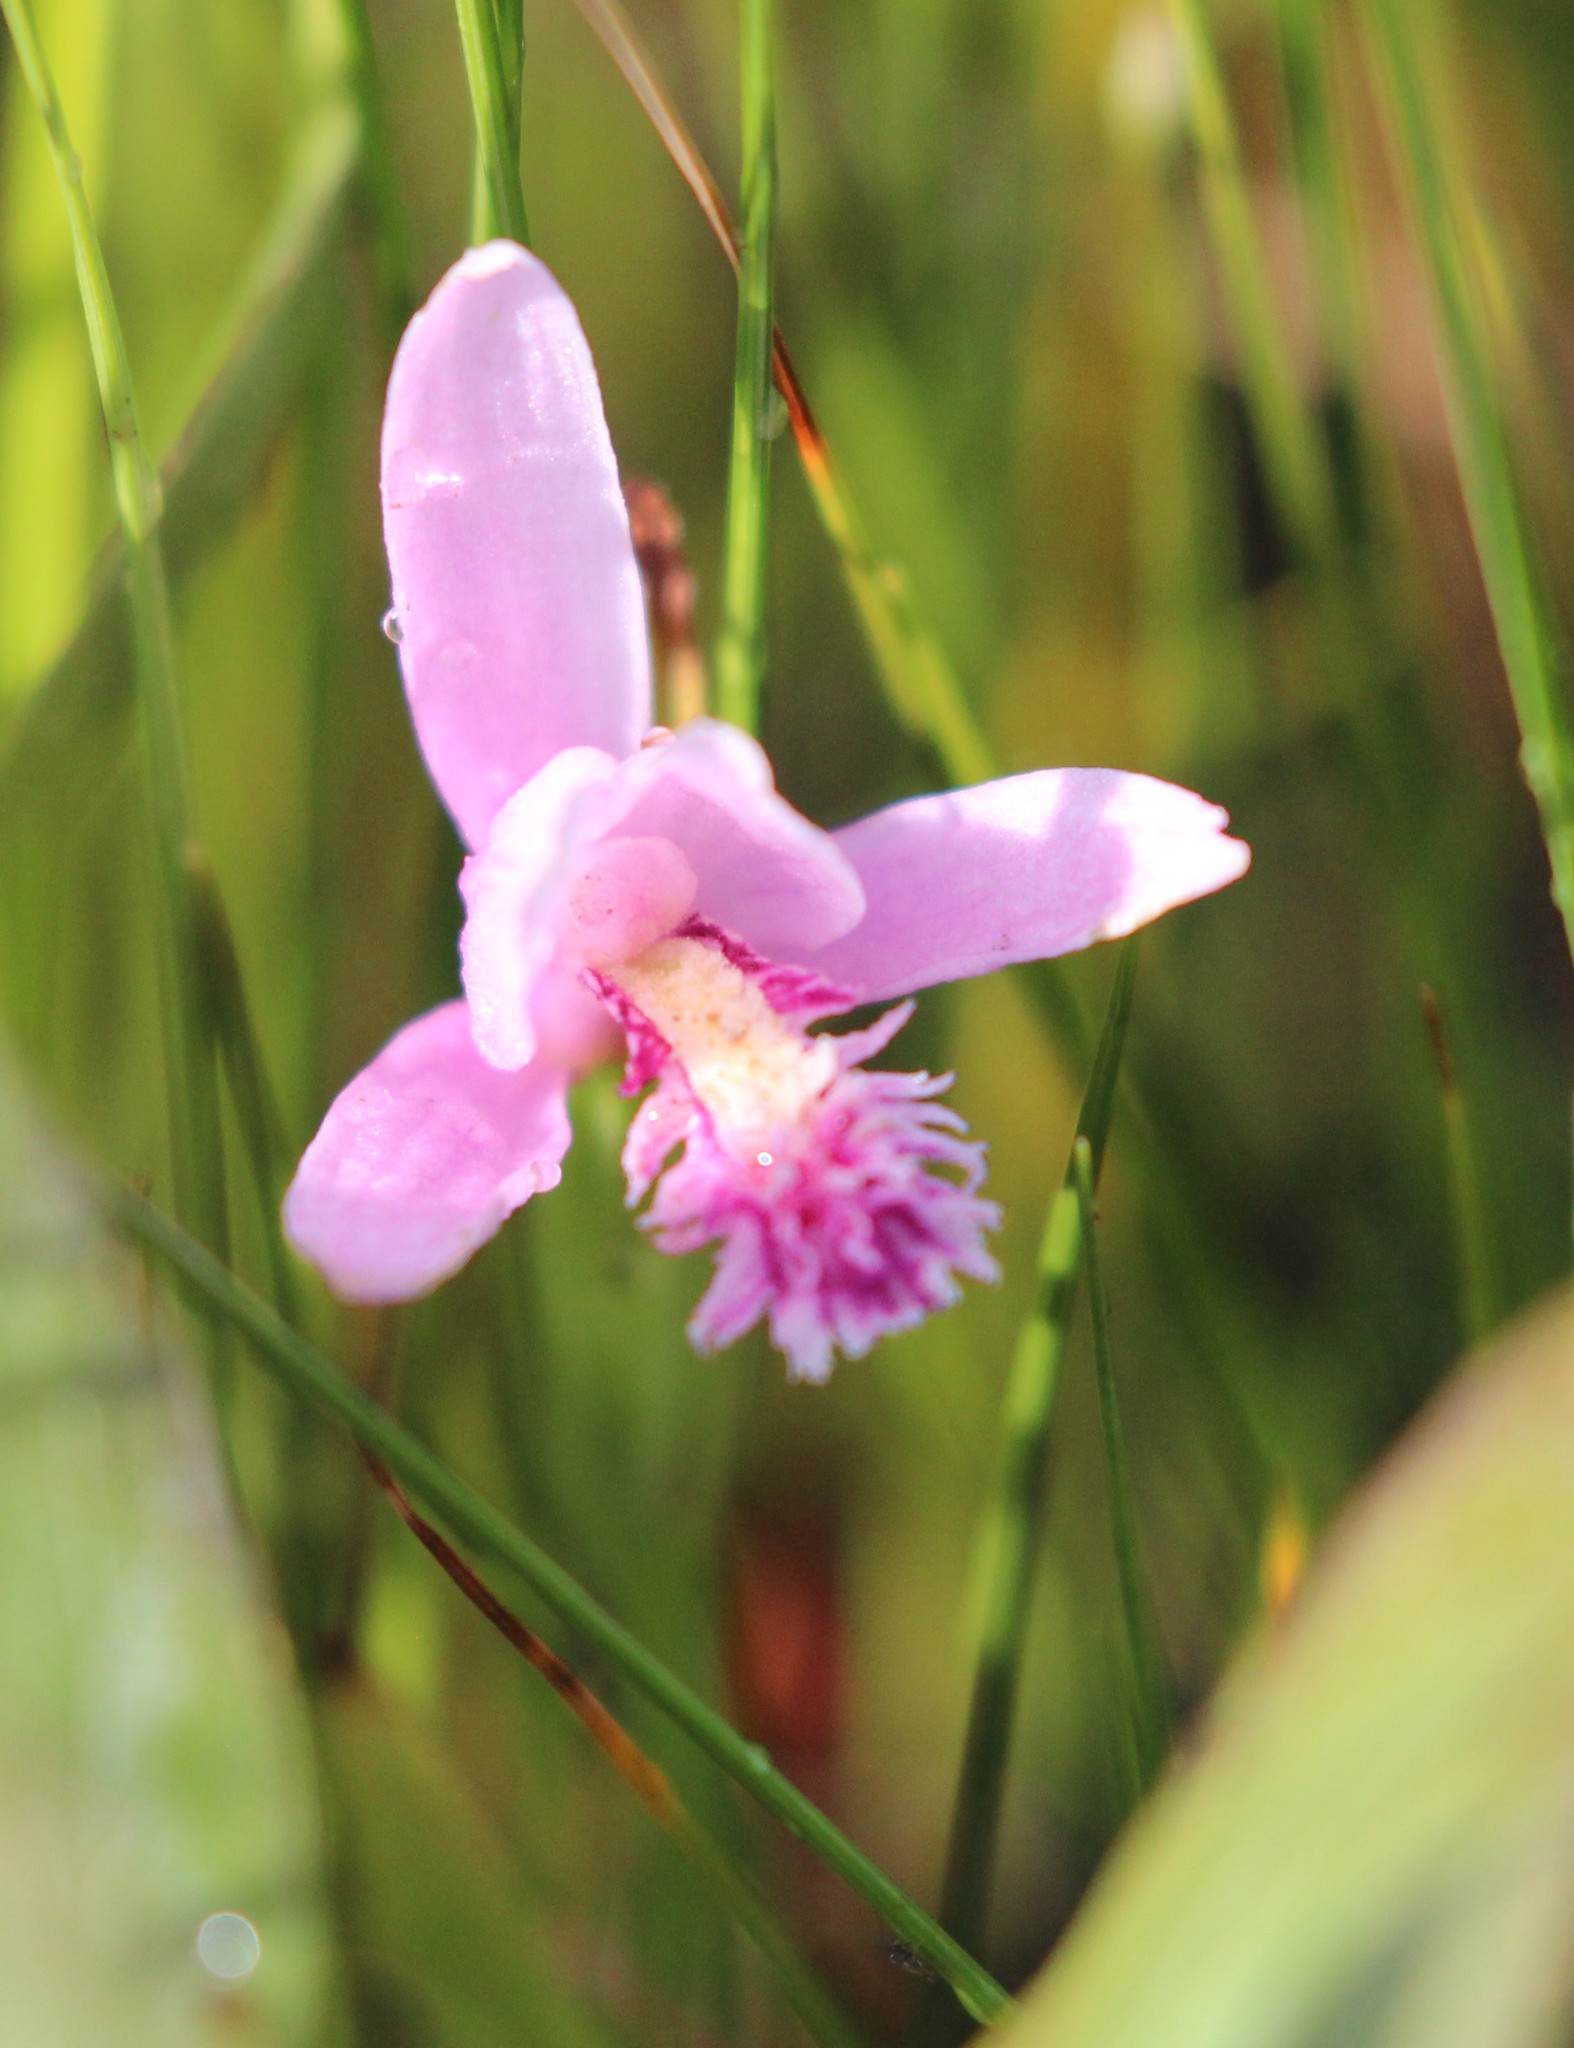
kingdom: Plantae
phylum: Tracheophyta
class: Liliopsida
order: Asparagales
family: Orchidaceae
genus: Pogonia
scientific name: Pogonia ophioglossoides
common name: Rose pogonia
